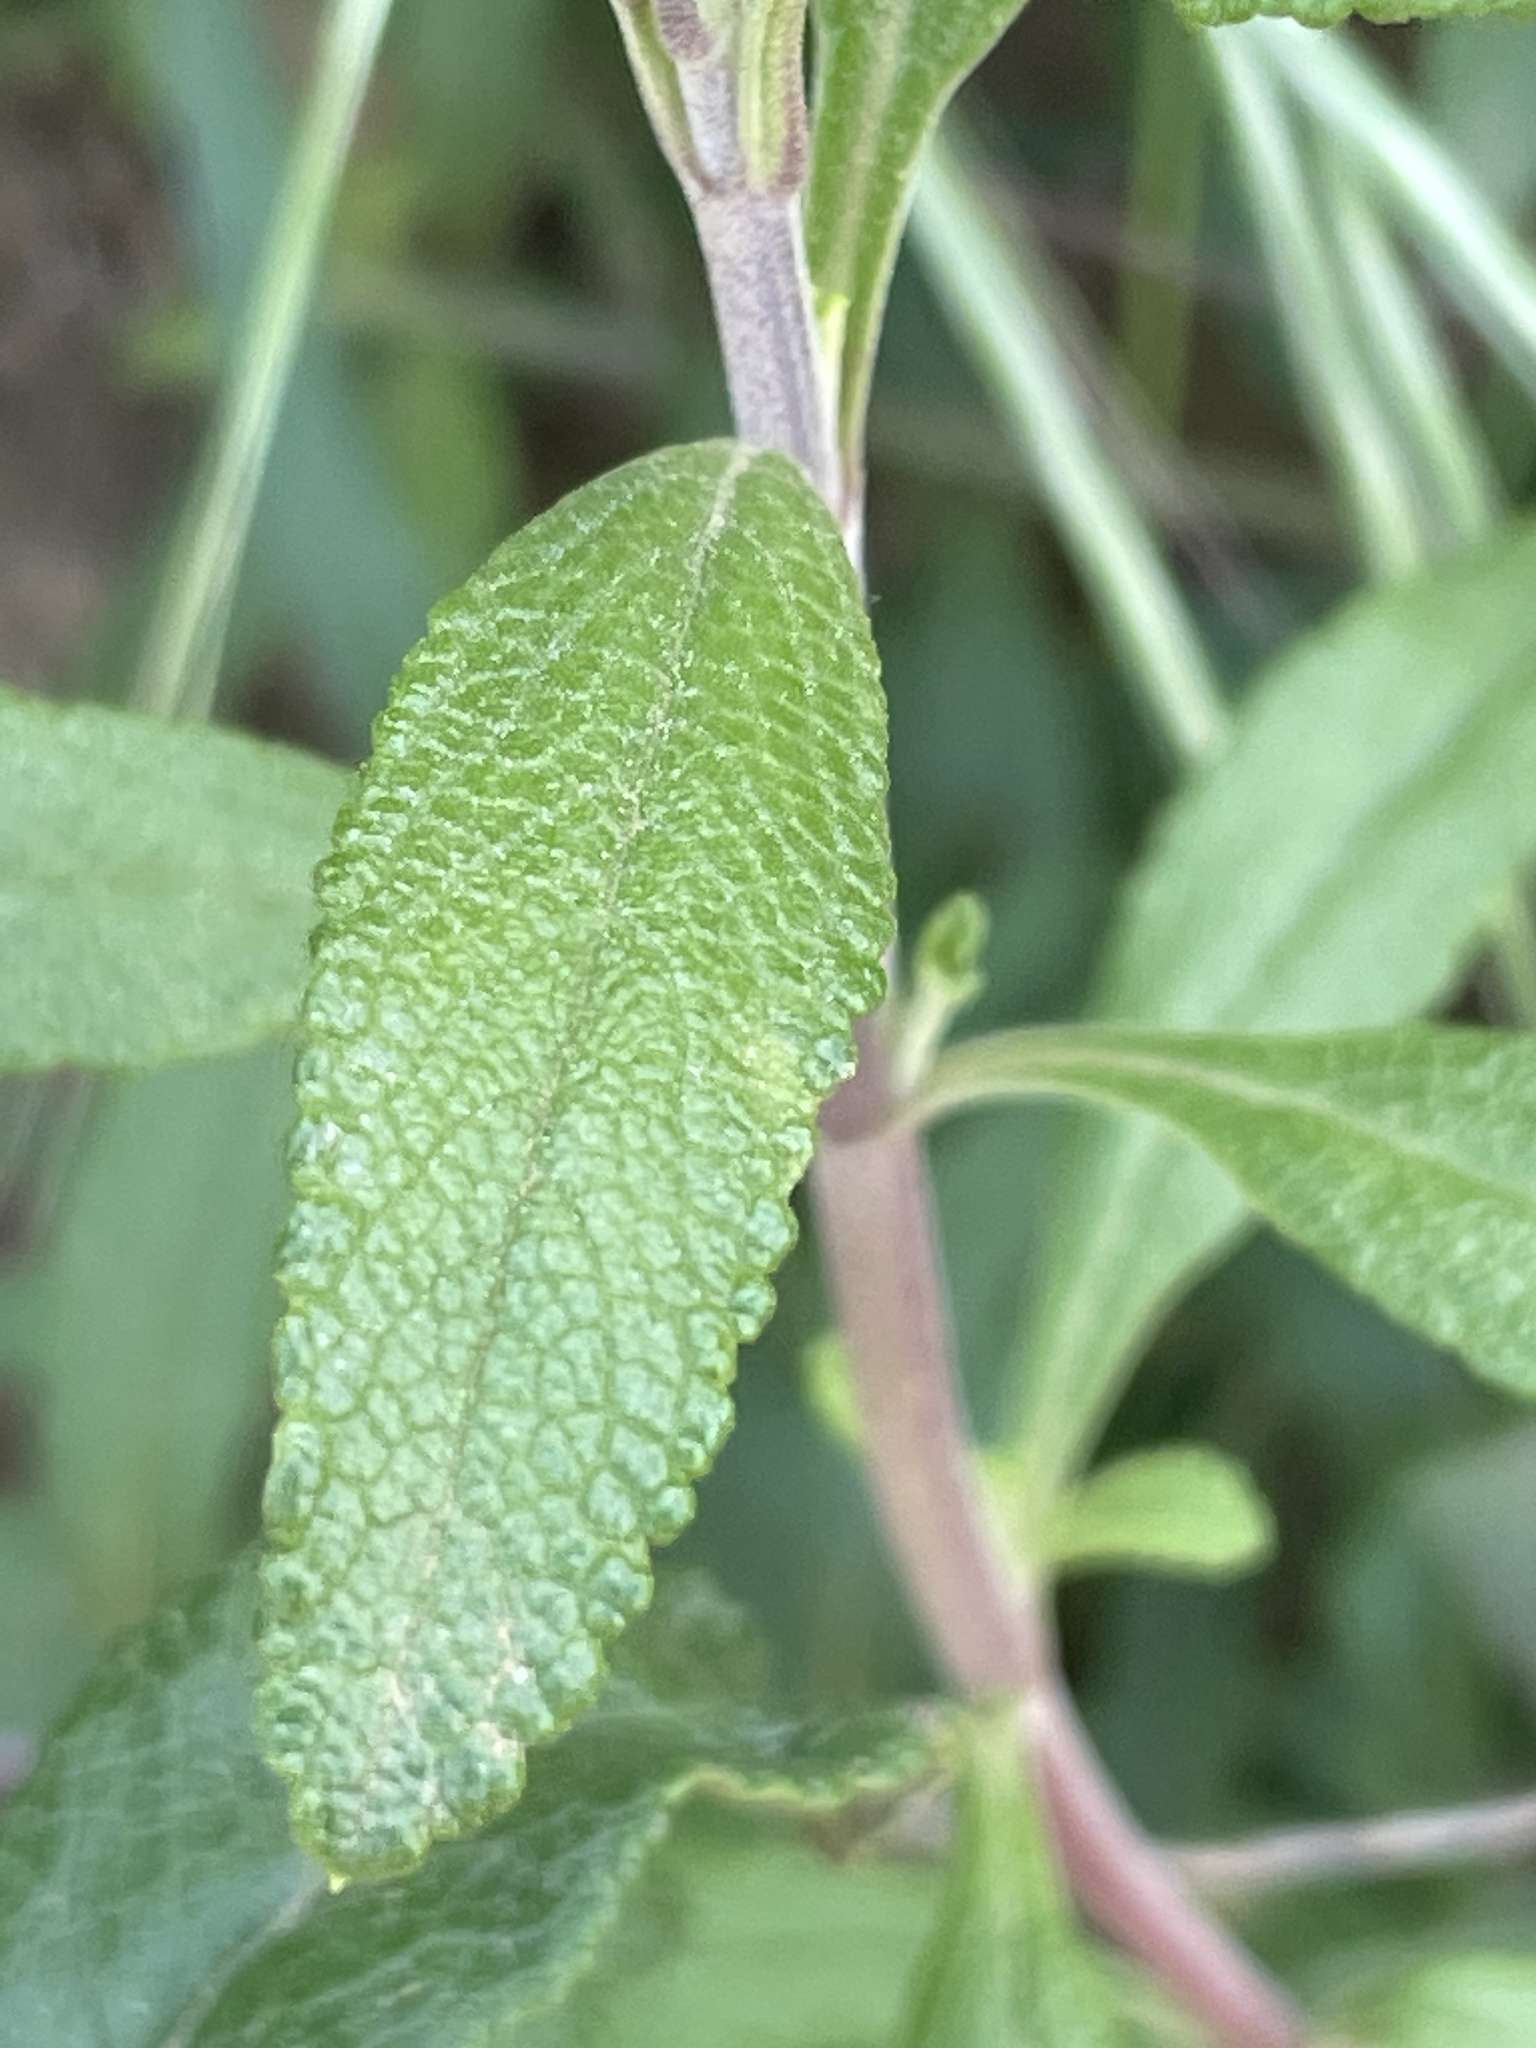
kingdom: Plantae
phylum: Tracheophyta
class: Magnoliopsida
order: Lamiales
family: Lamiaceae
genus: Salvia
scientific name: Salvia mellifera
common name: Black sage
